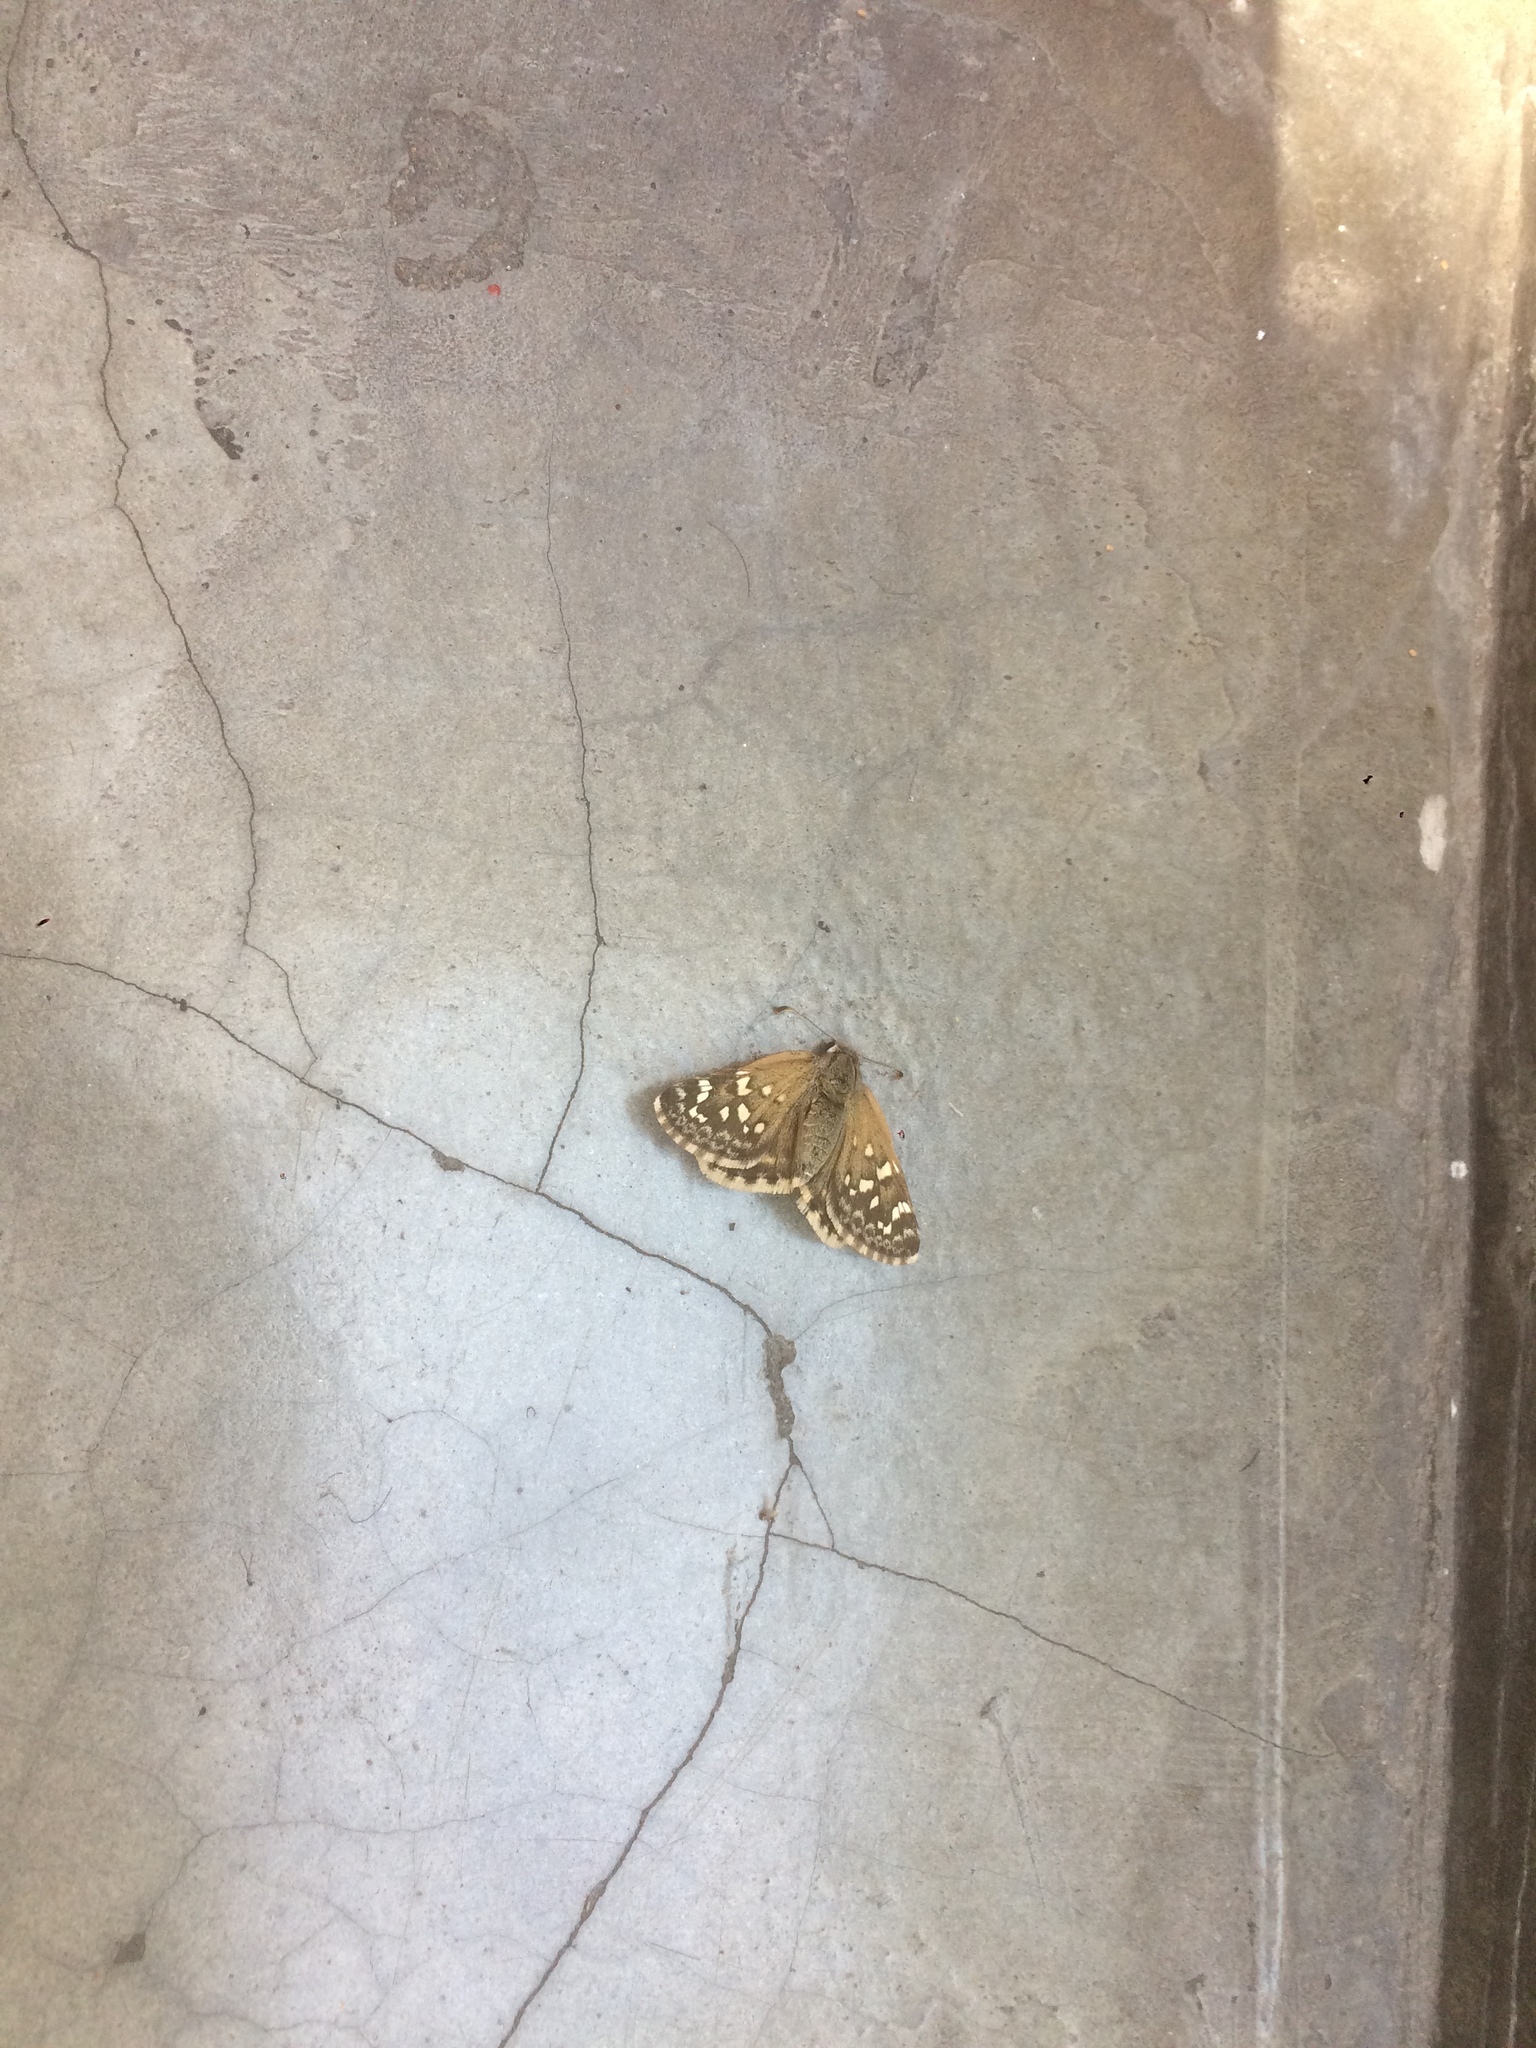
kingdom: Animalia
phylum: Arthropoda
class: Insecta
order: Lepidoptera
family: Hesperiidae
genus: Chirgus
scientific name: Chirgus bocchoris
